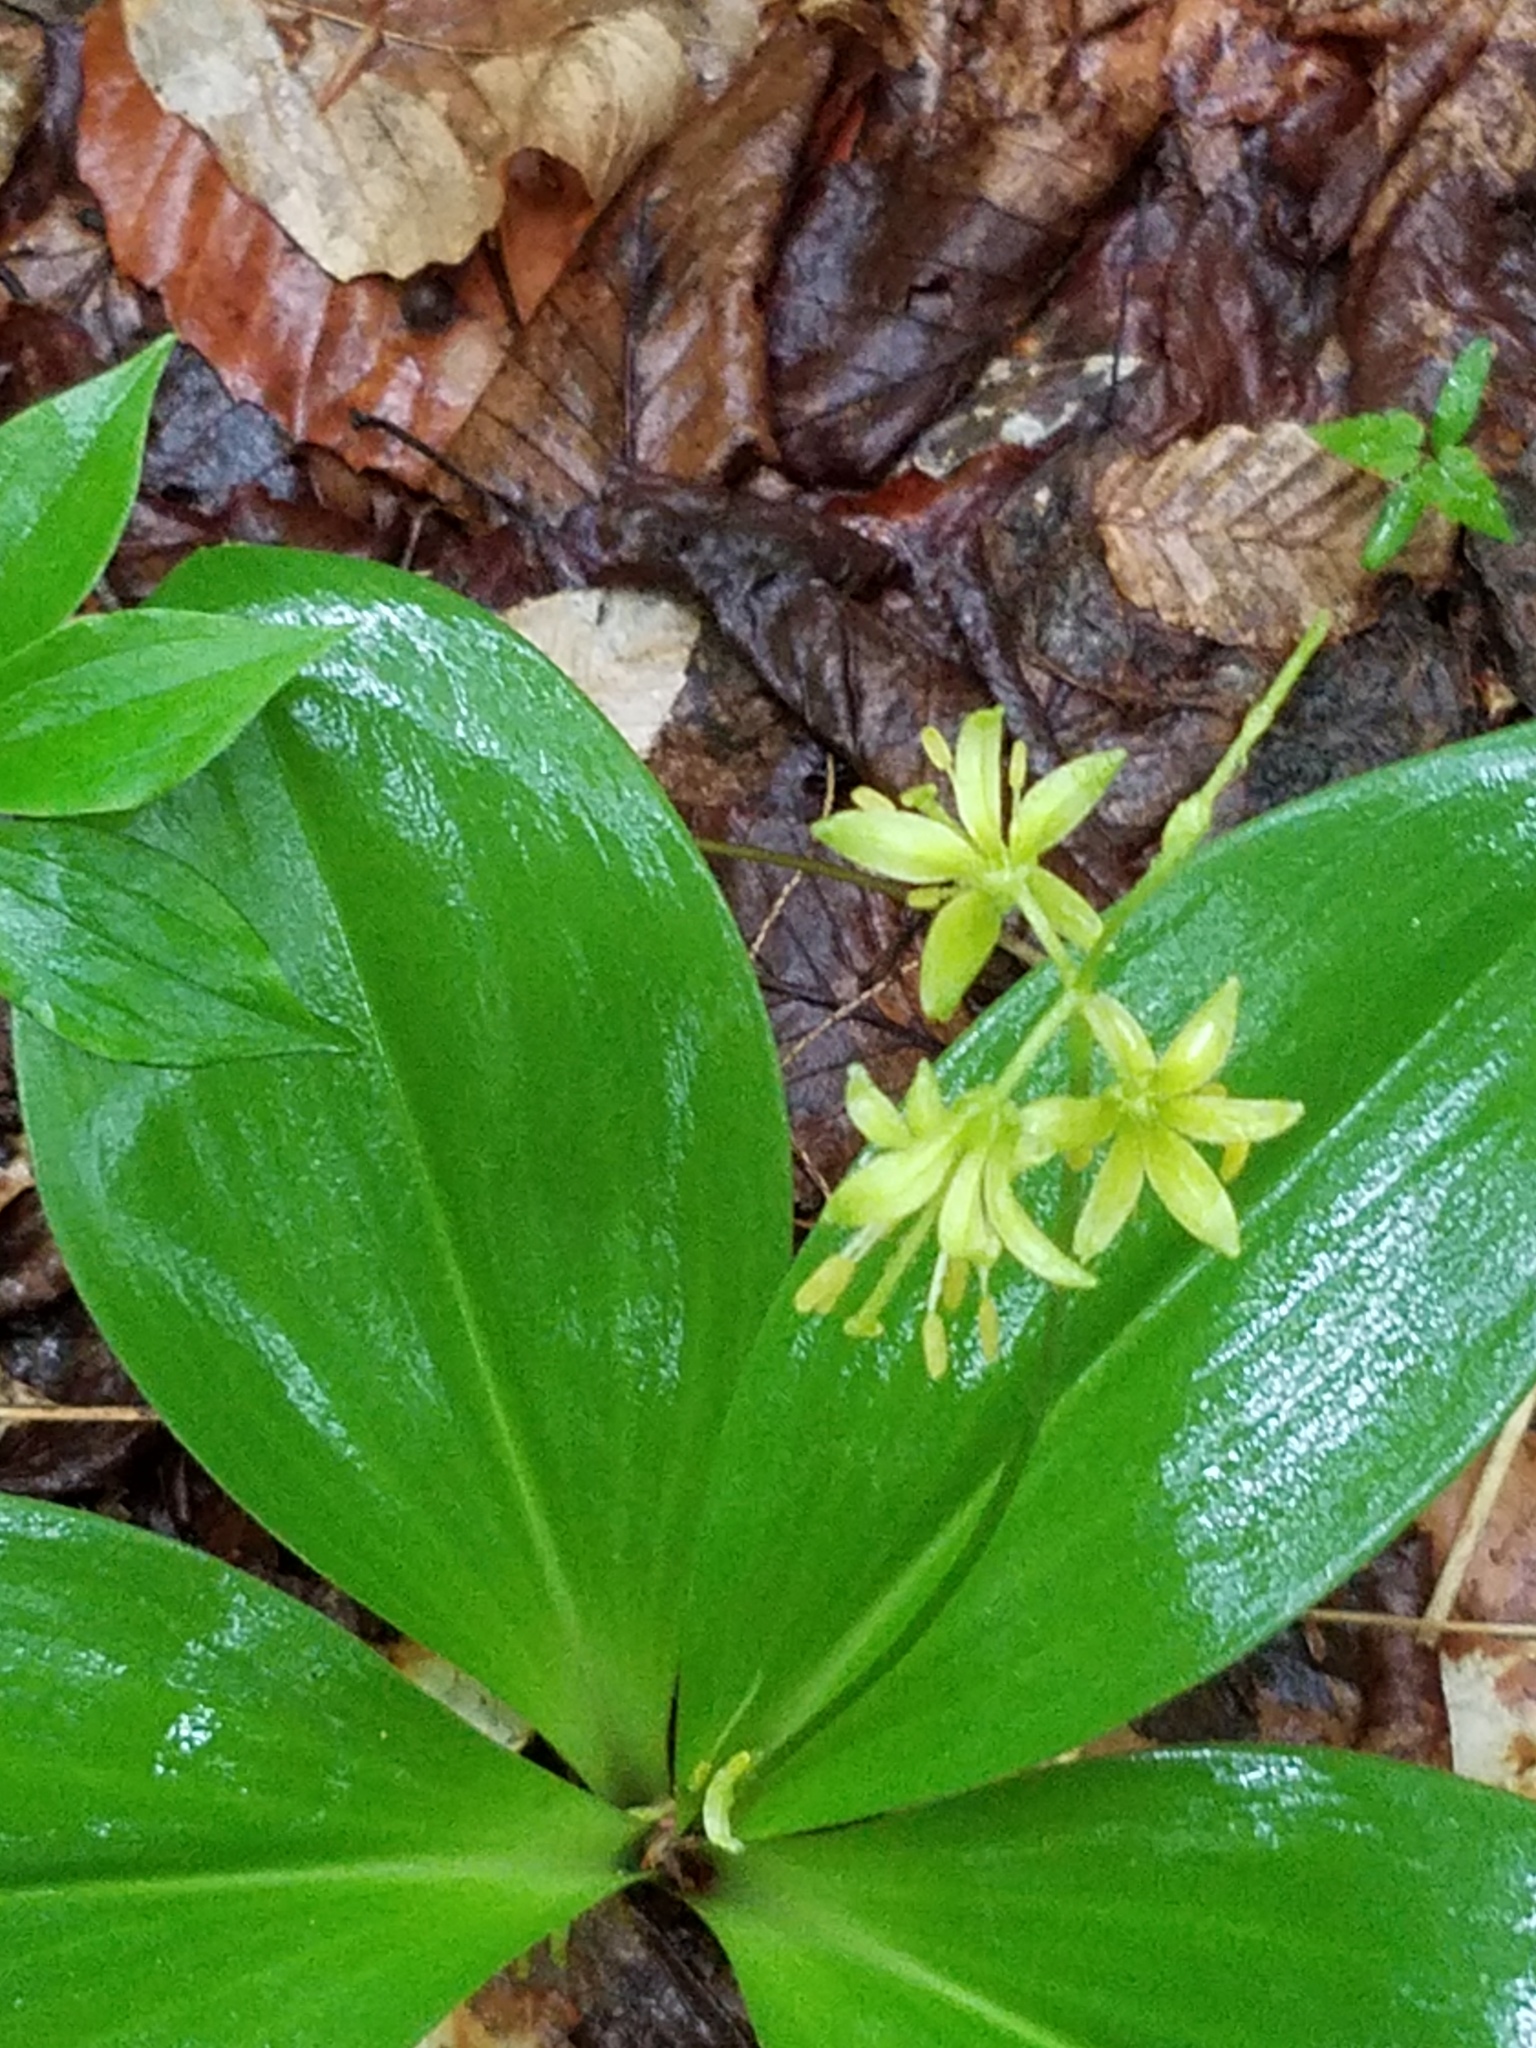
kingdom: Plantae
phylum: Tracheophyta
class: Liliopsida
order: Liliales
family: Liliaceae
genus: Clintonia
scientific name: Clintonia borealis
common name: Yellow clintonia
